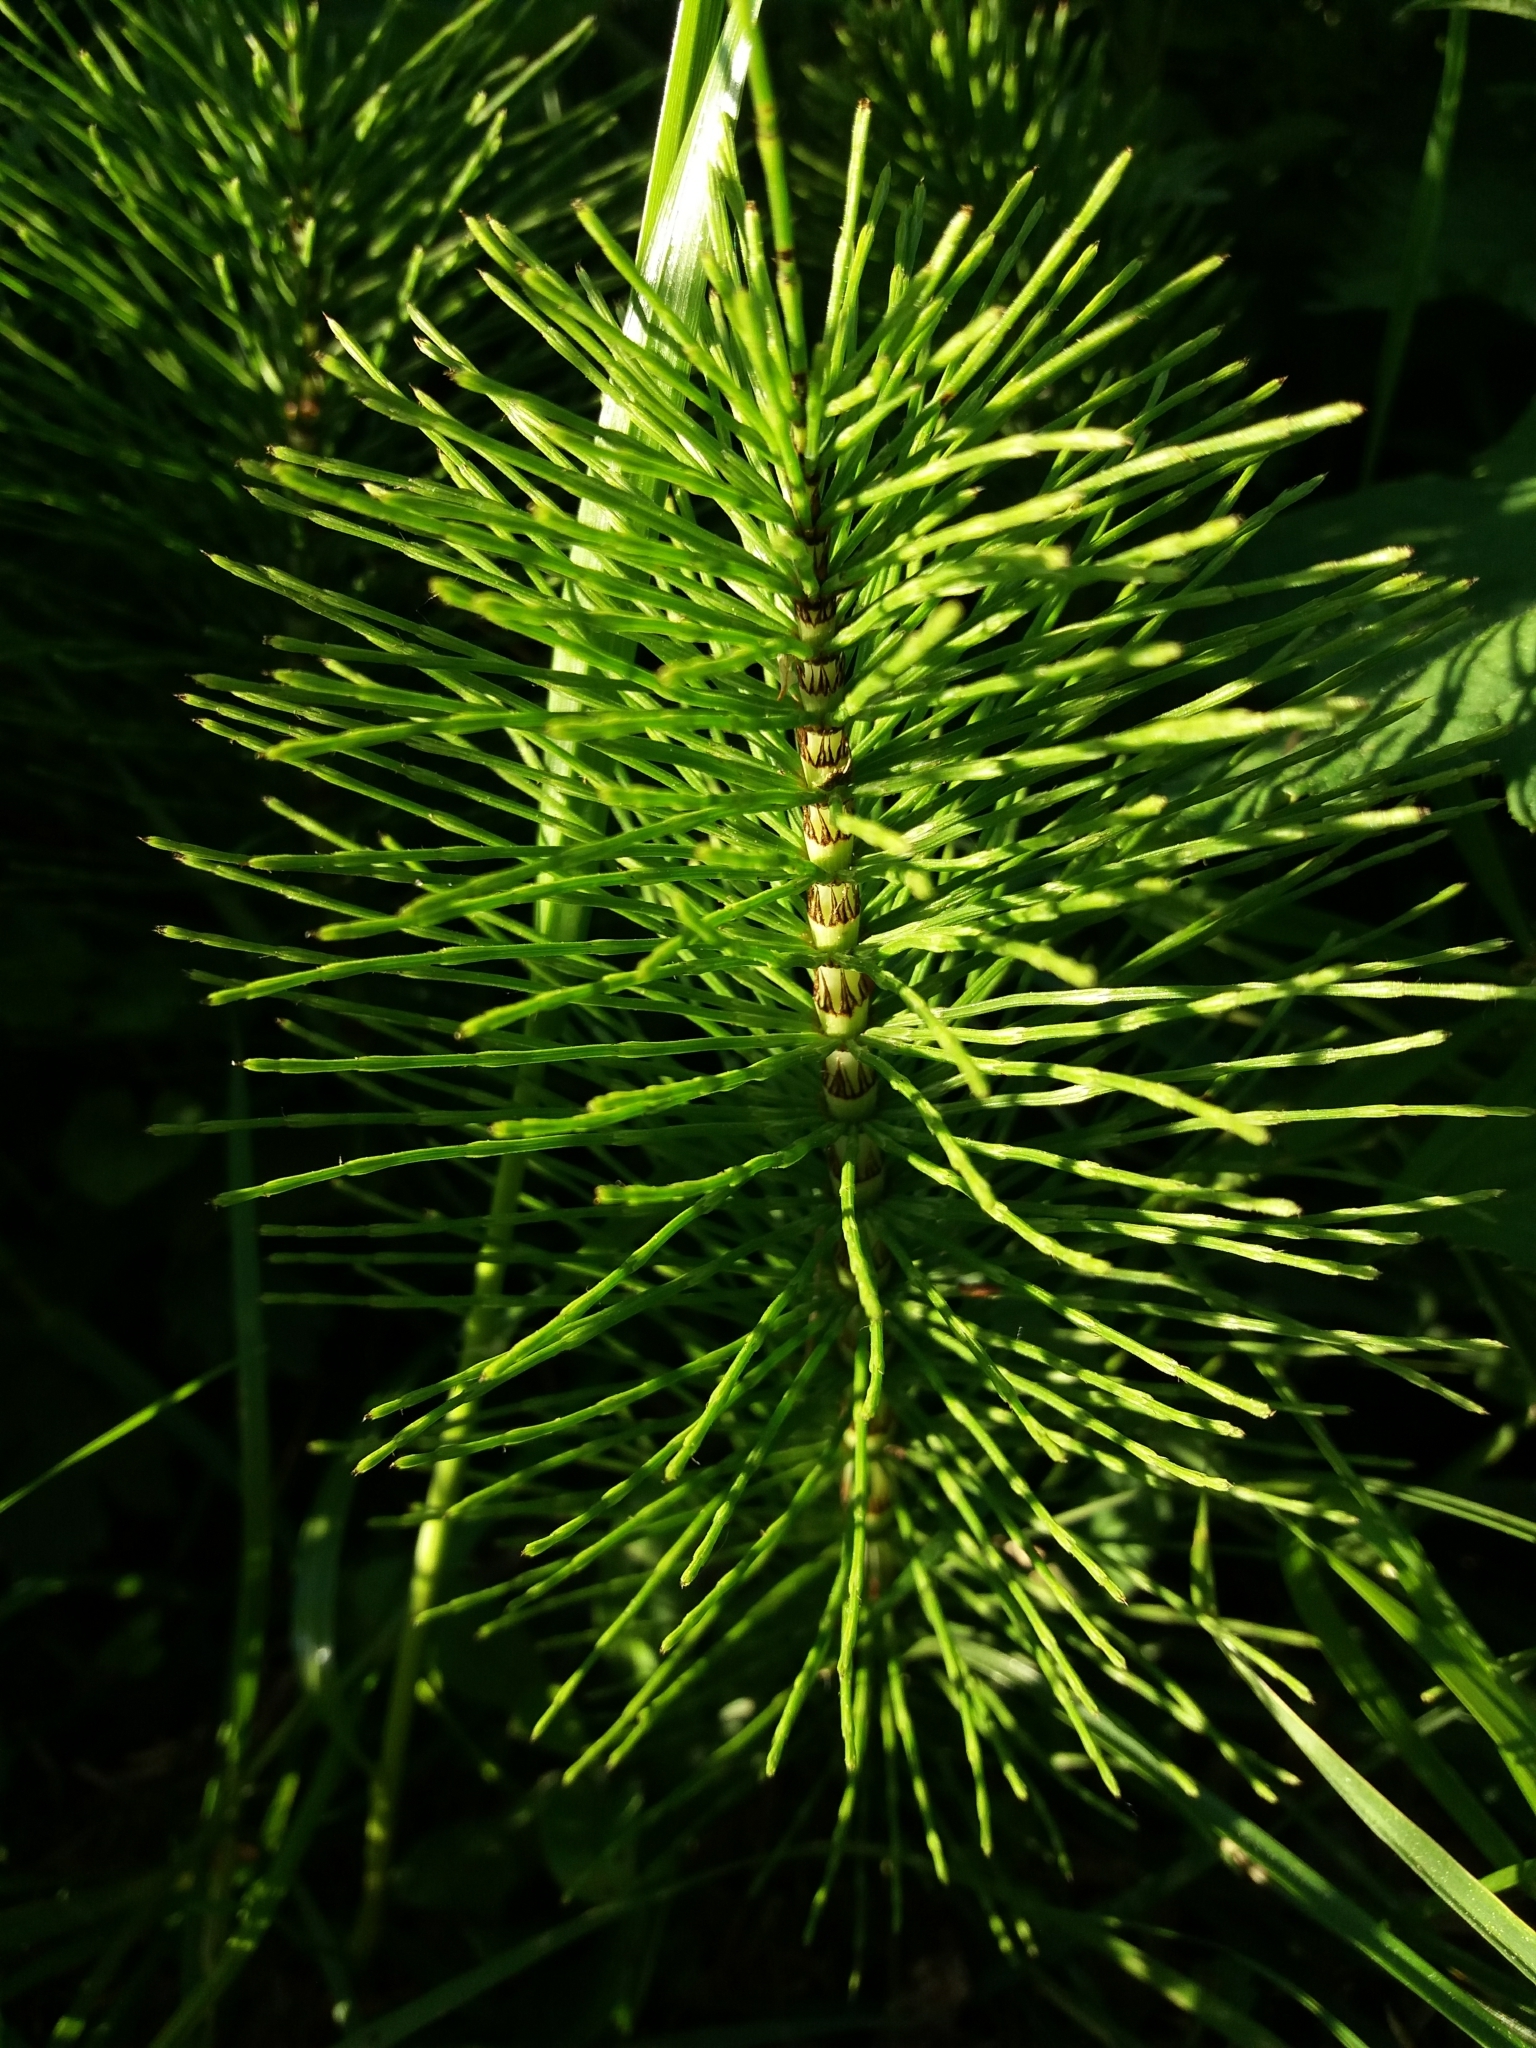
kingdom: Plantae
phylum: Tracheophyta
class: Polypodiopsida
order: Equisetales
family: Equisetaceae
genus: Equisetum
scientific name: Equisetum telmateia
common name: Great horsetail
